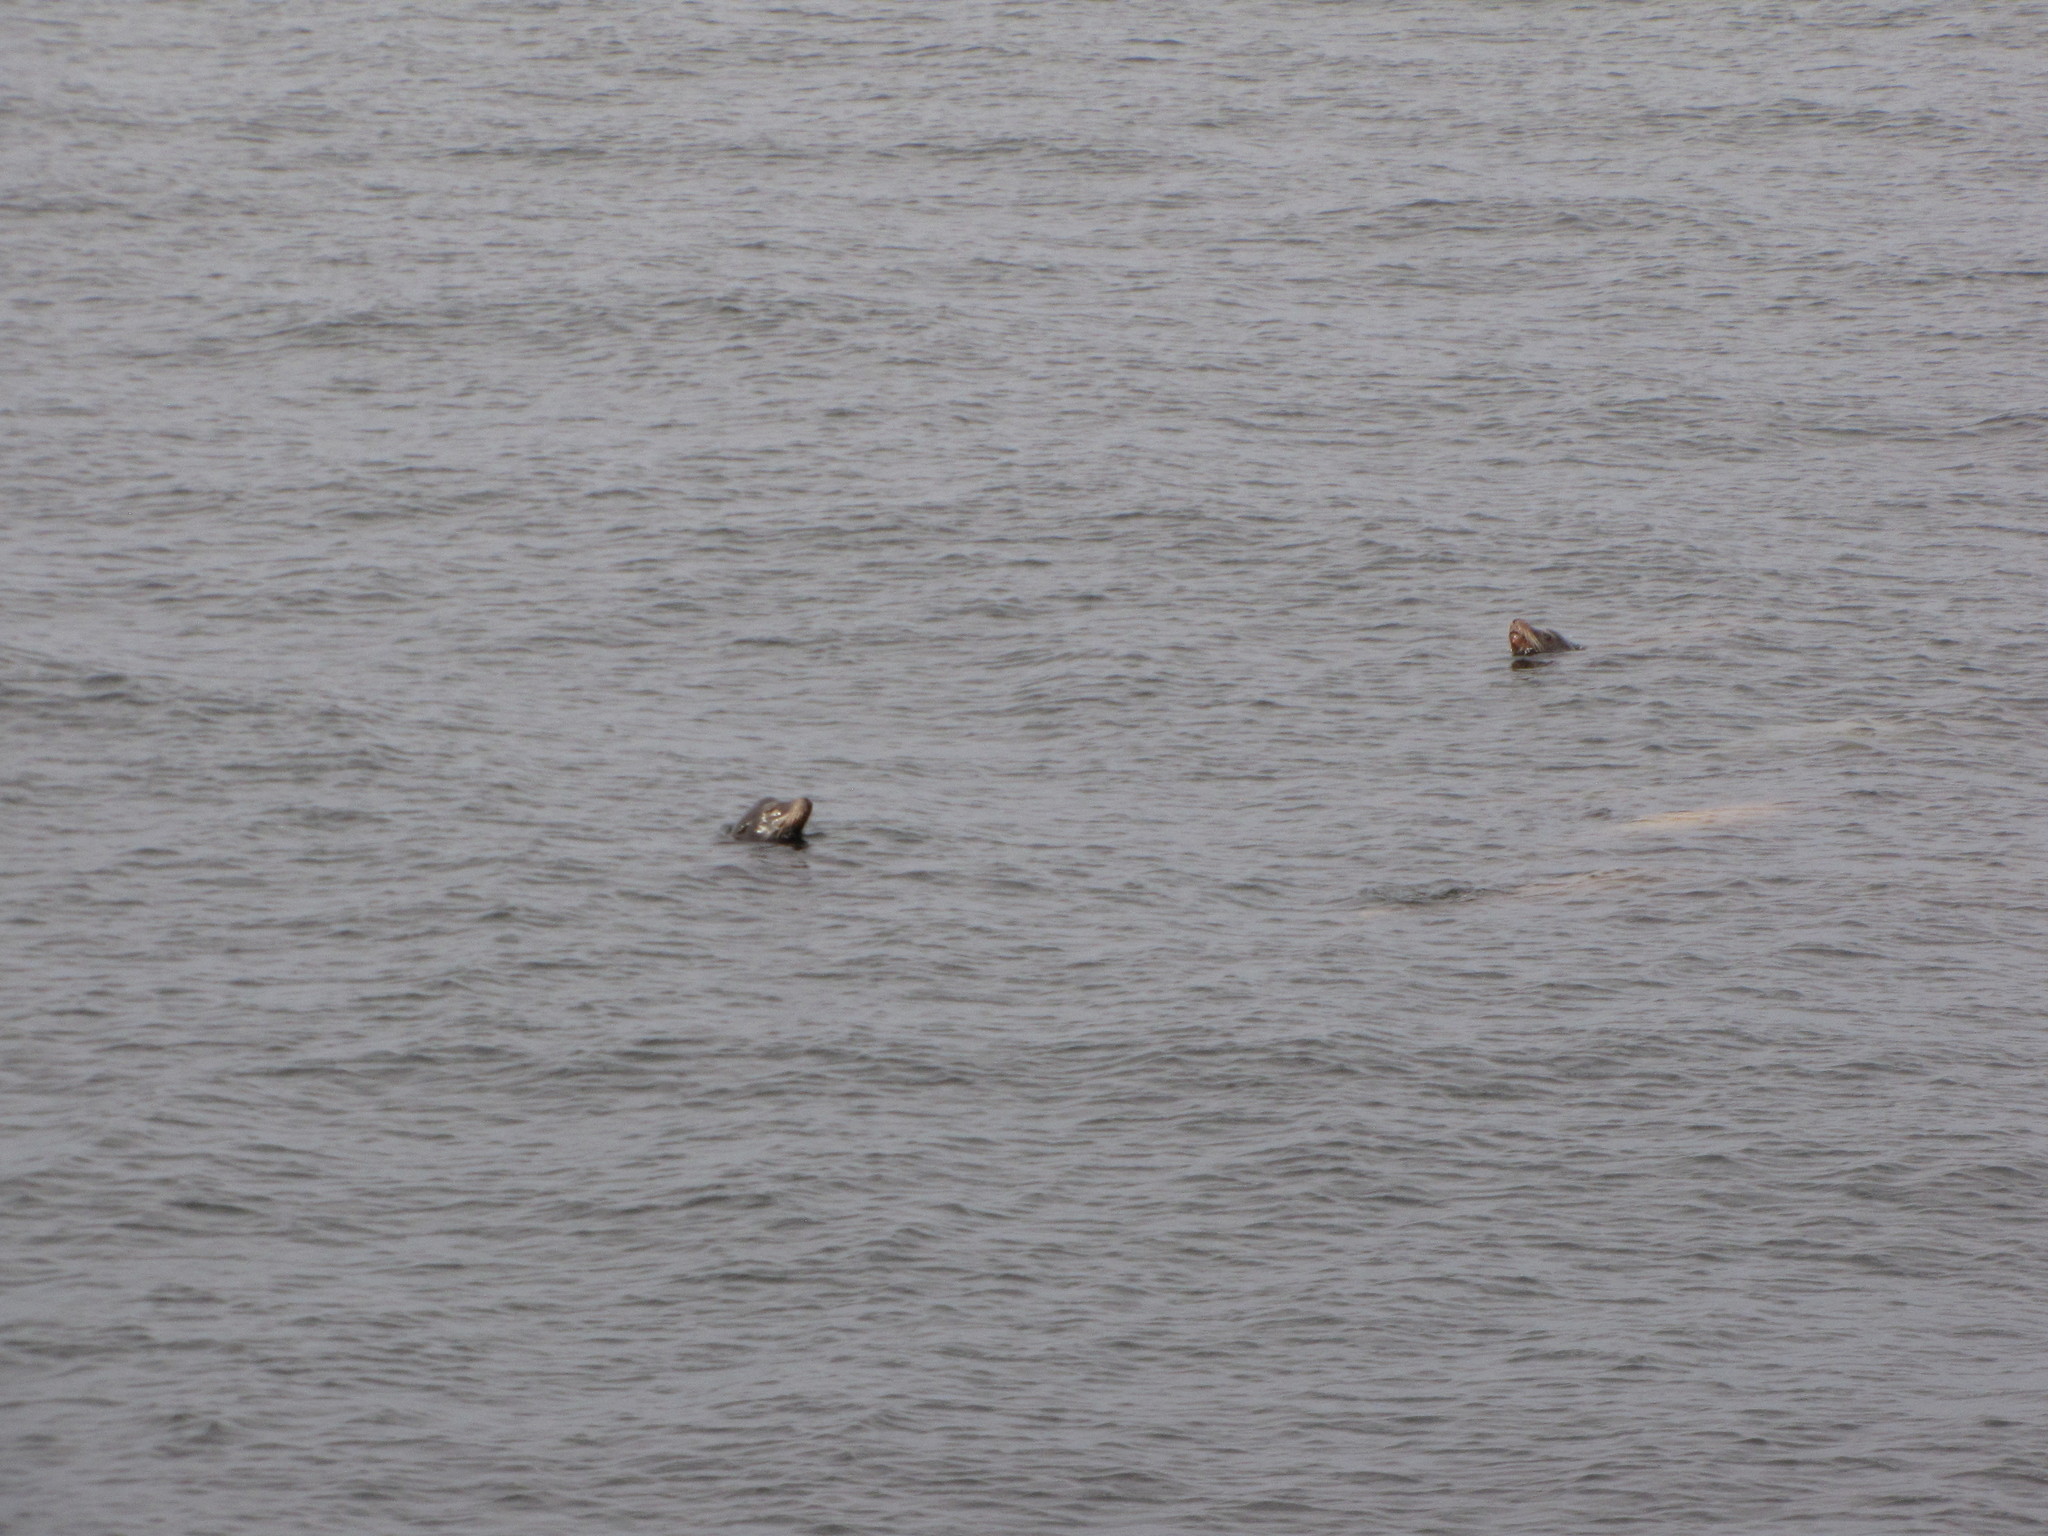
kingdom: Animalia
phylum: Chordata
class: Mammalia
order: Carnivora
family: Otariidae
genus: Zalophus
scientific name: Zalophus californianus
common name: California sea lion
